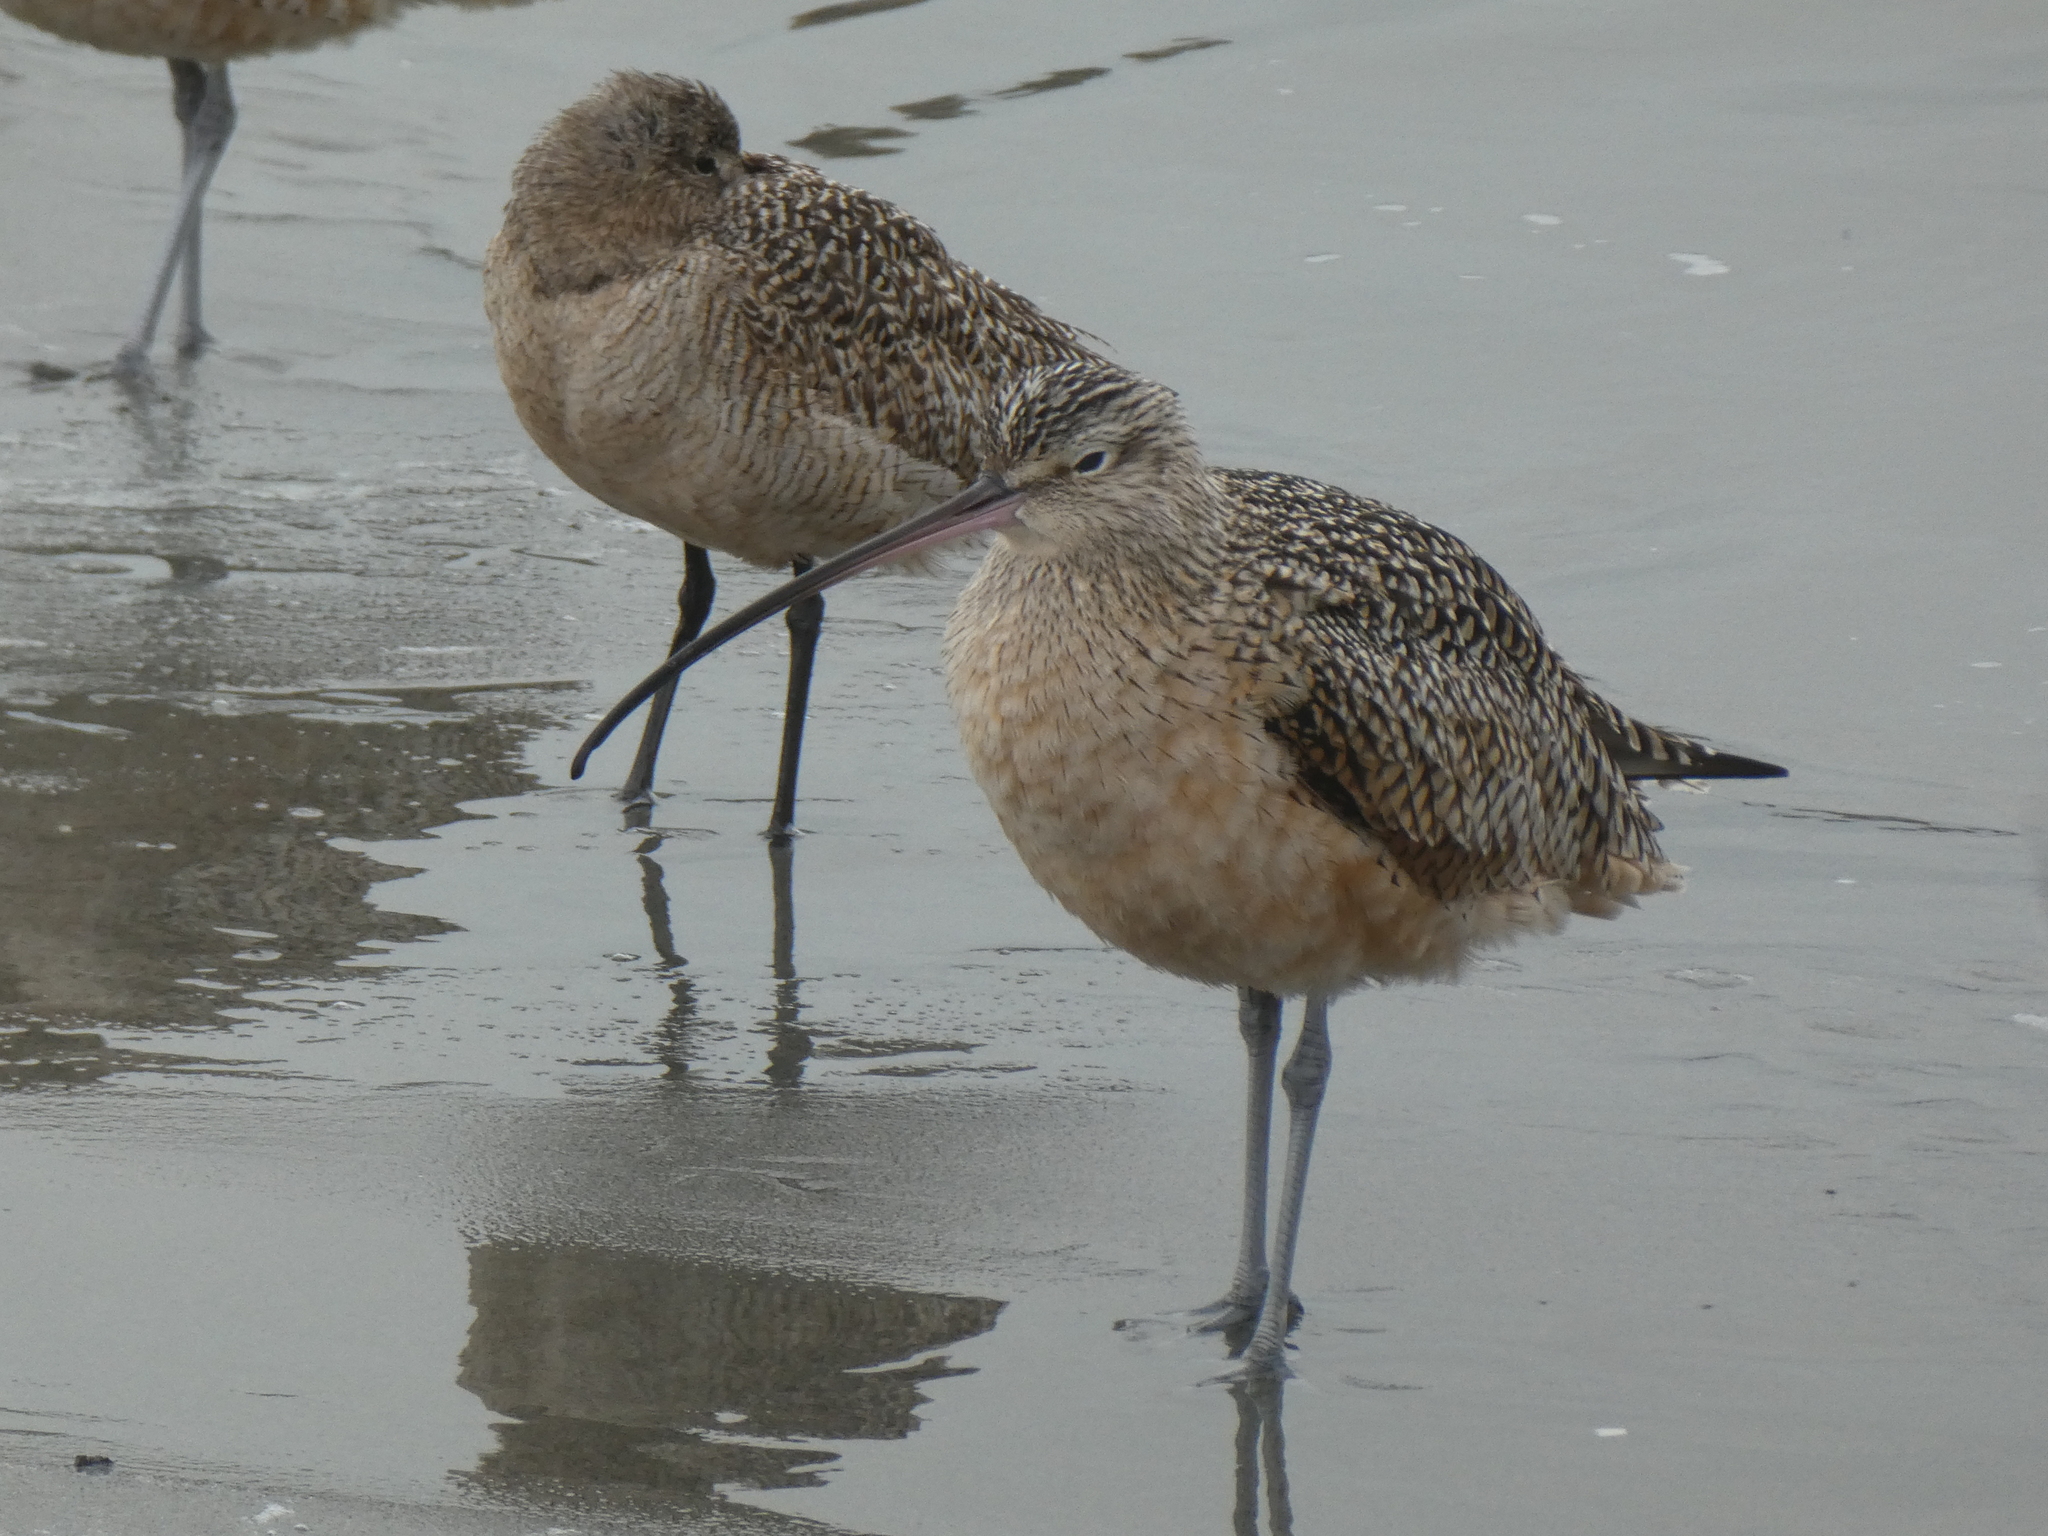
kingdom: Animalia
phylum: Chordata
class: Aves
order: Charadriiformes
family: Scolopacidae
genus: Numenius
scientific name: Numenius americanus
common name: Long-billed curlew
